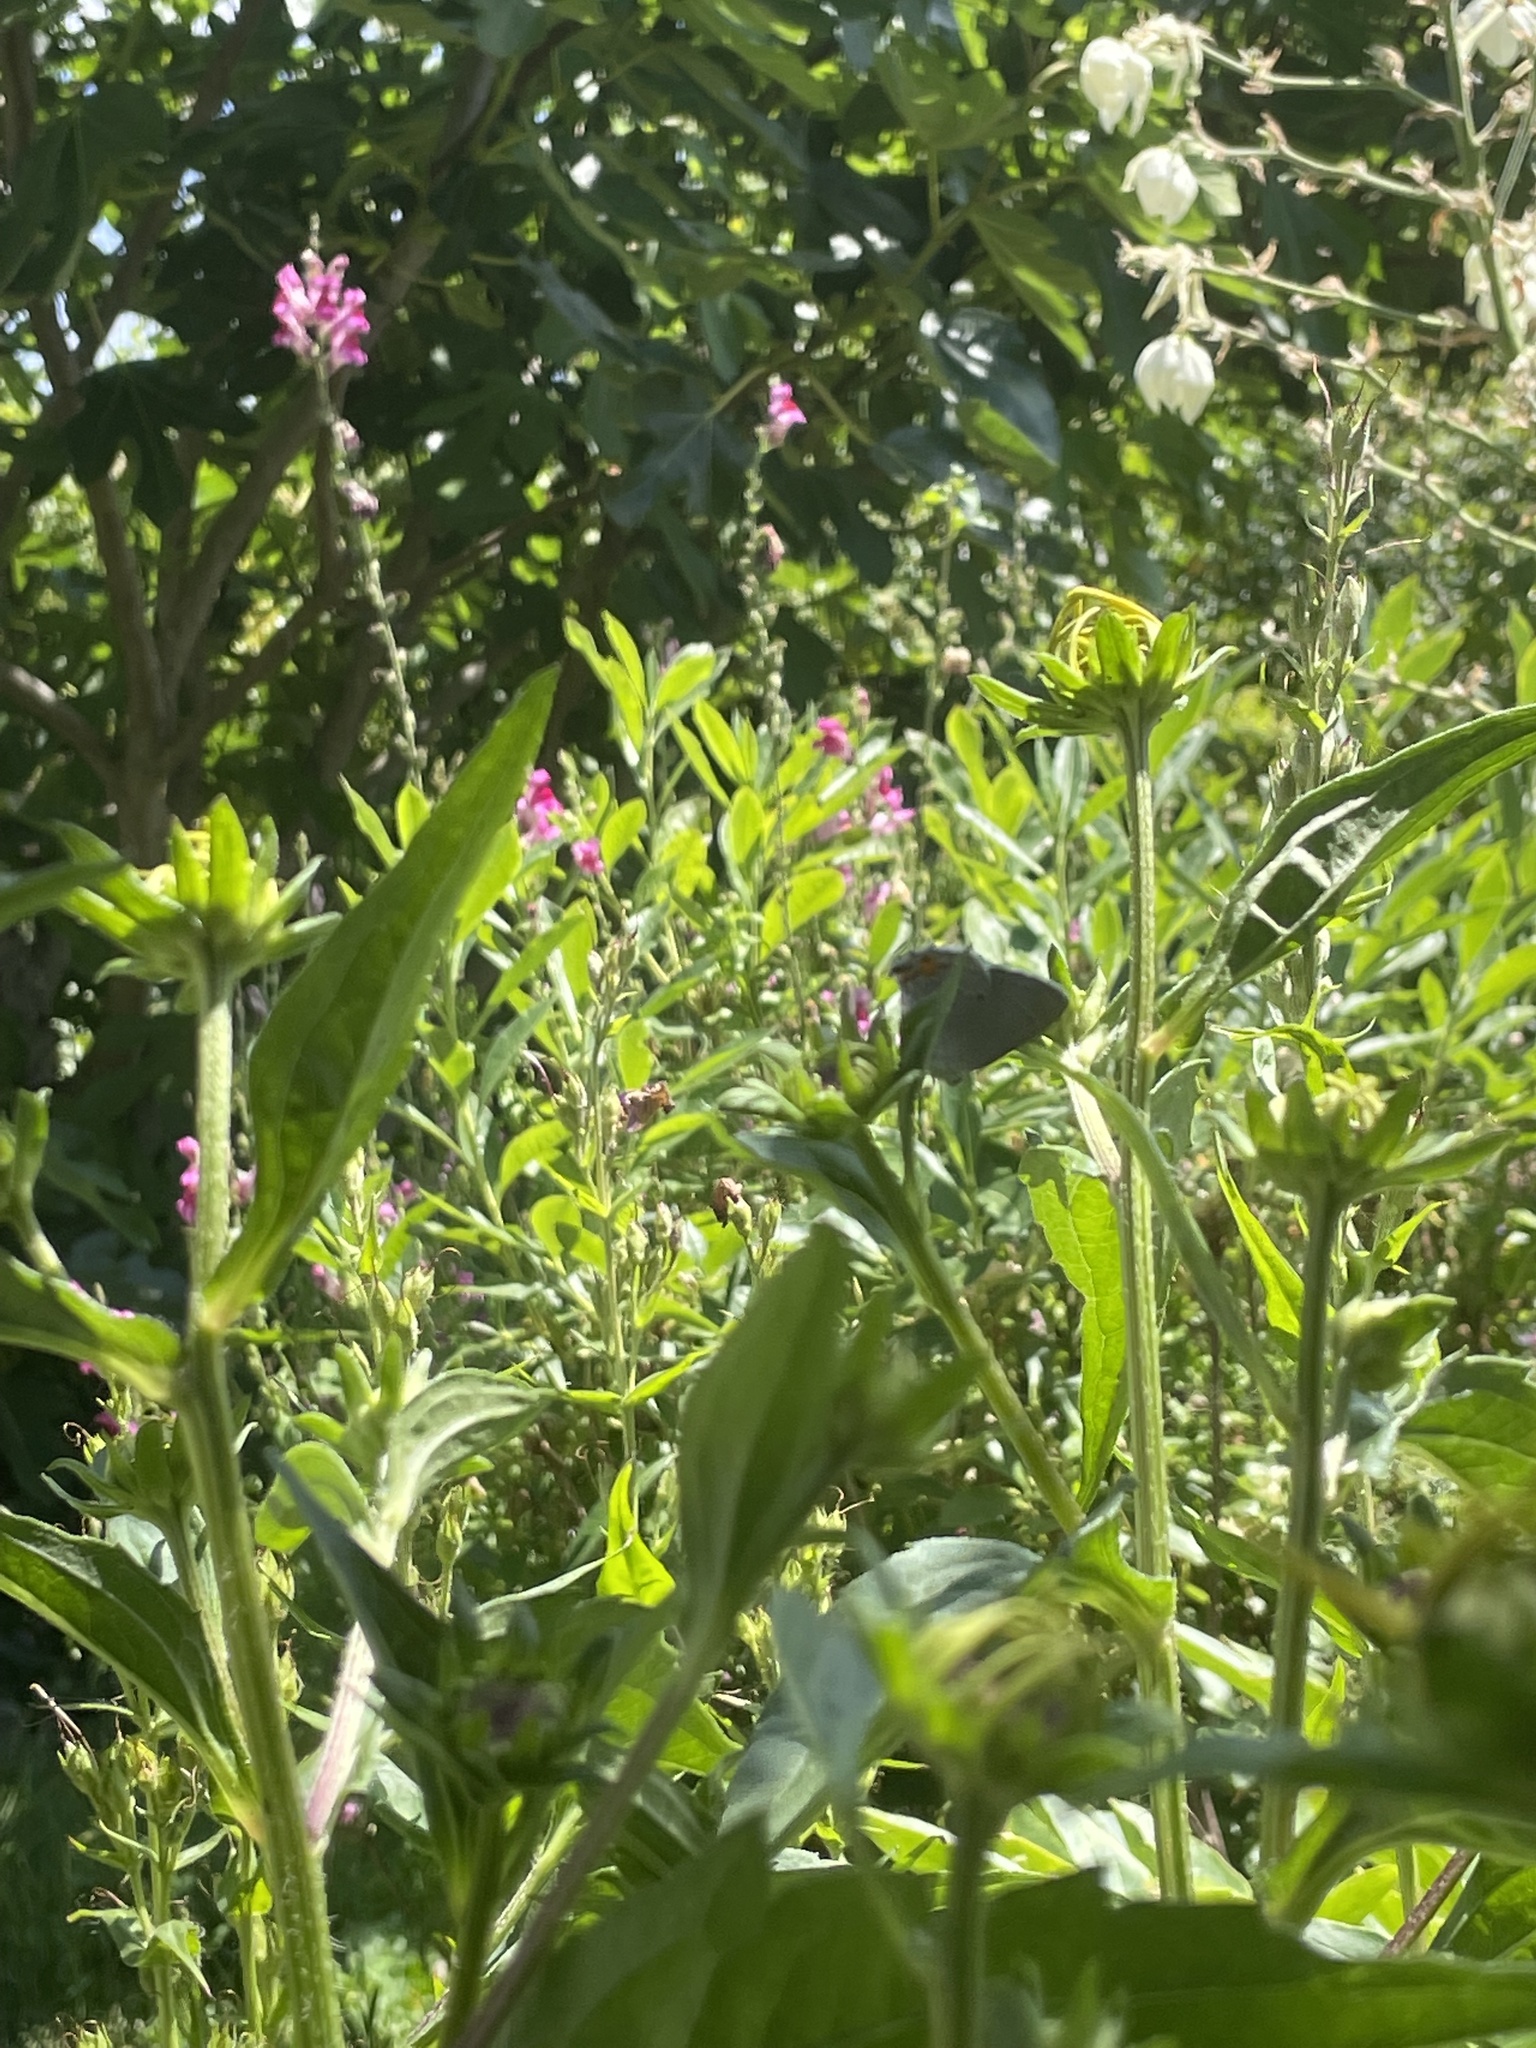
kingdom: Animalia
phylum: Arthropoda
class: Insecta
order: Lepidoptera
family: Lycaenidae
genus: Strymon
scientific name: Strymon melinus
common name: Gray hairstreak
